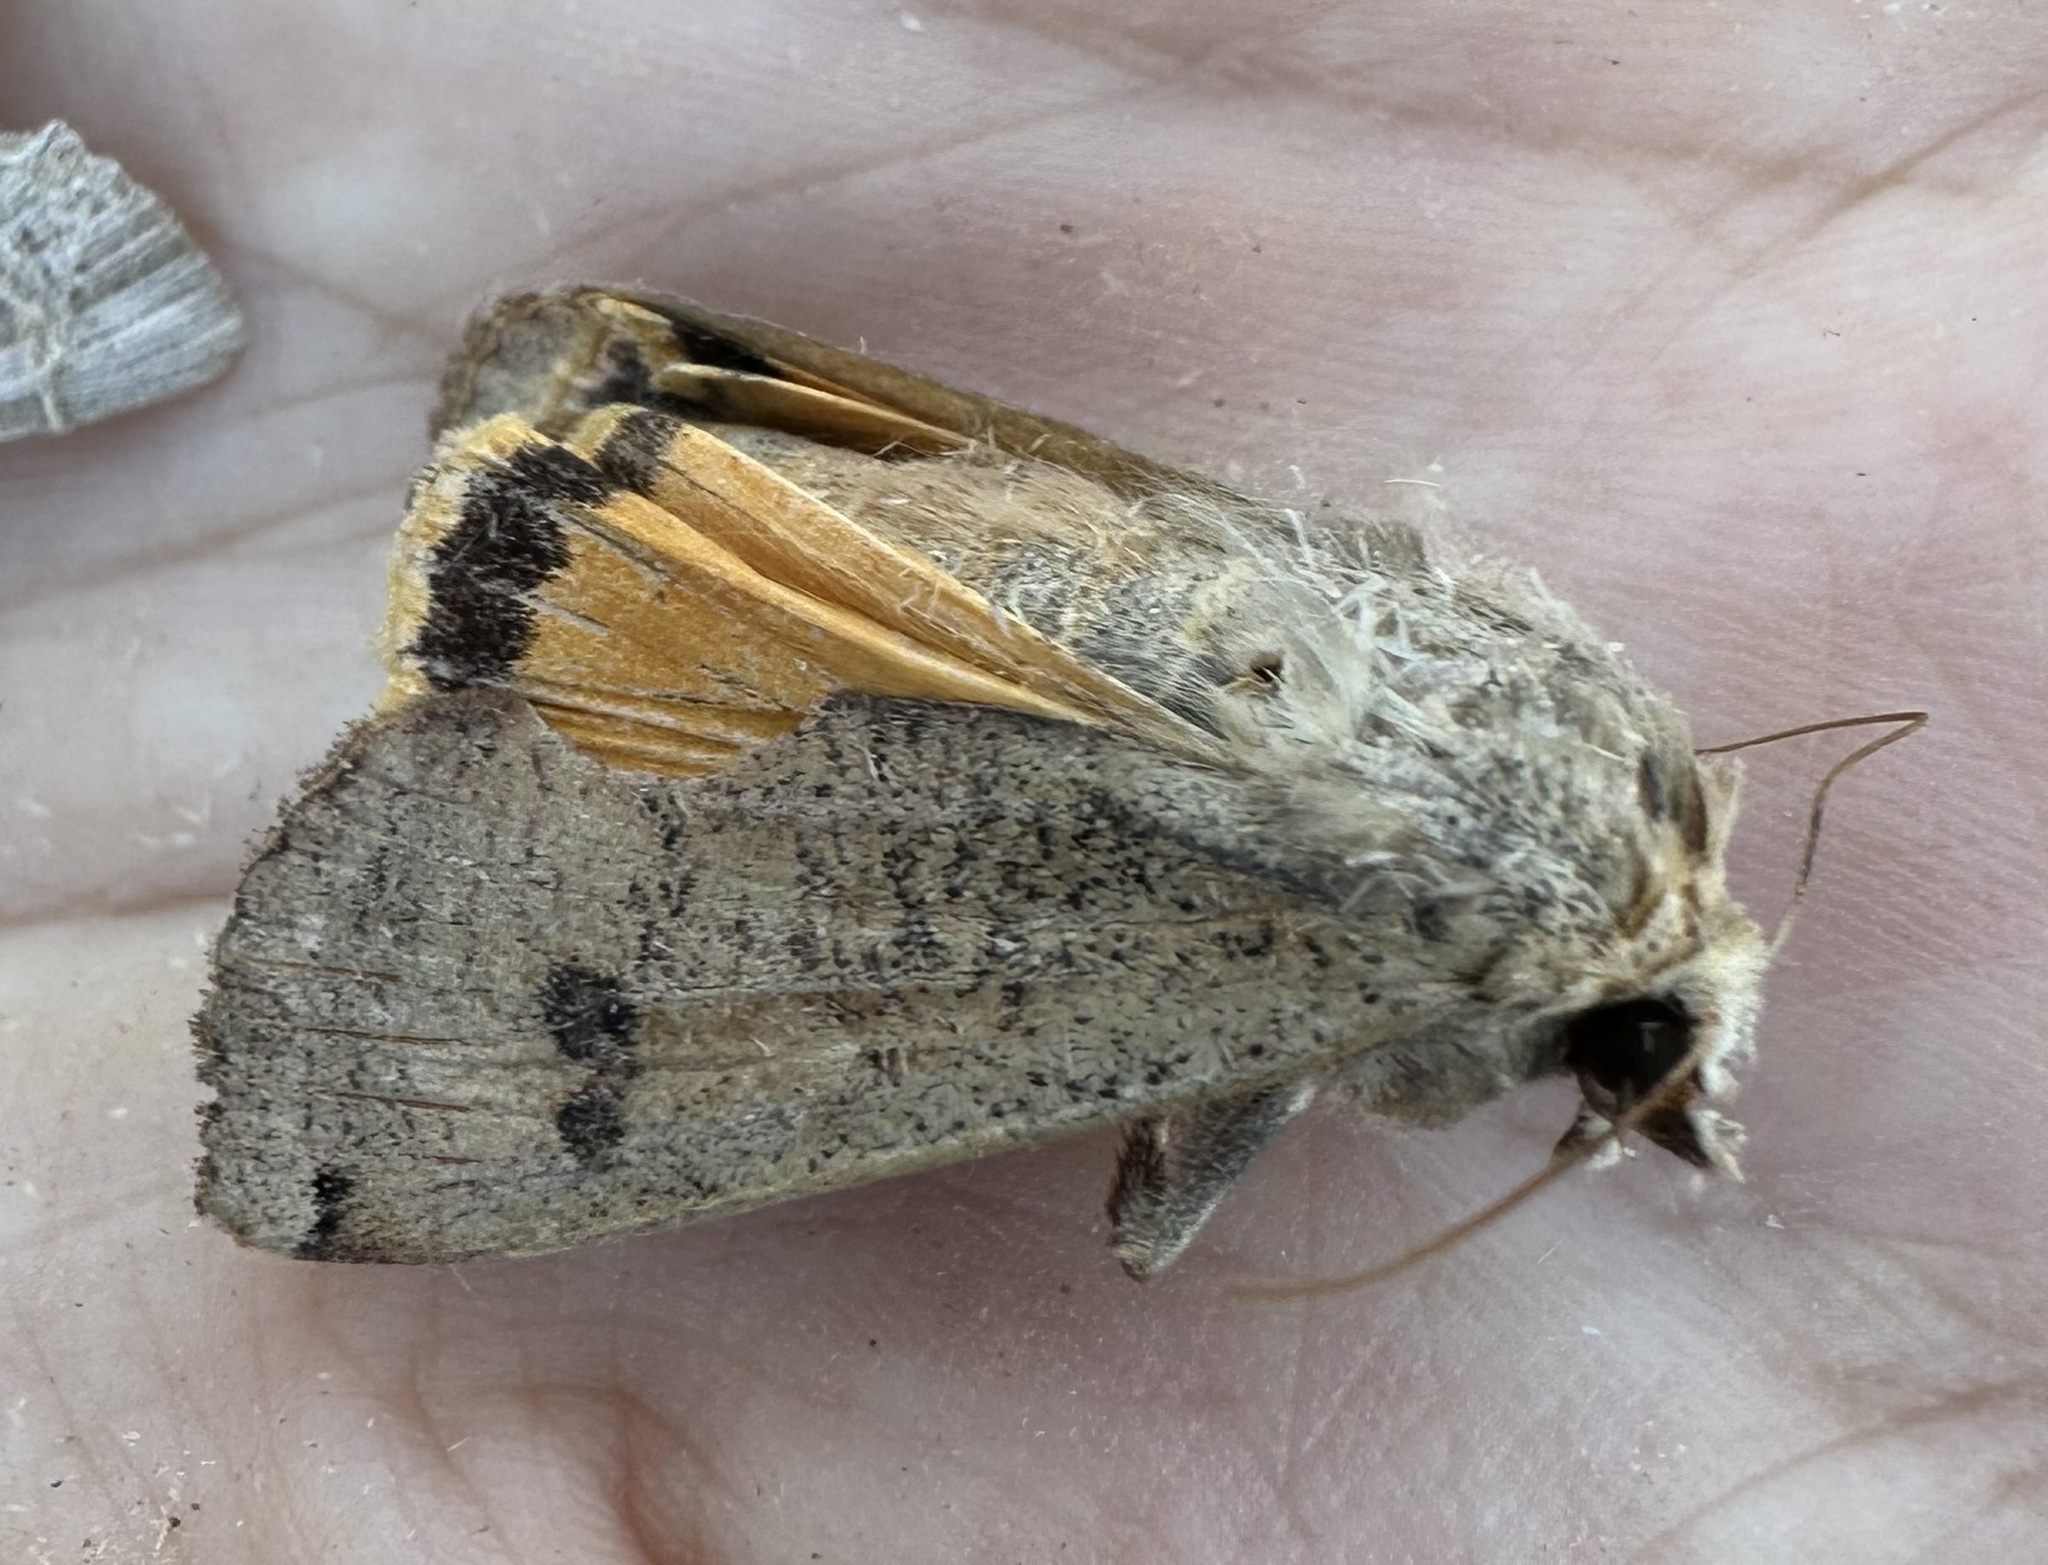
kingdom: Animalia
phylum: Arthropoda
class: Insecta
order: Lepidoptera
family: Noctuidae
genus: Noctua
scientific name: Noctua pronuba
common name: Large yellow underwing
